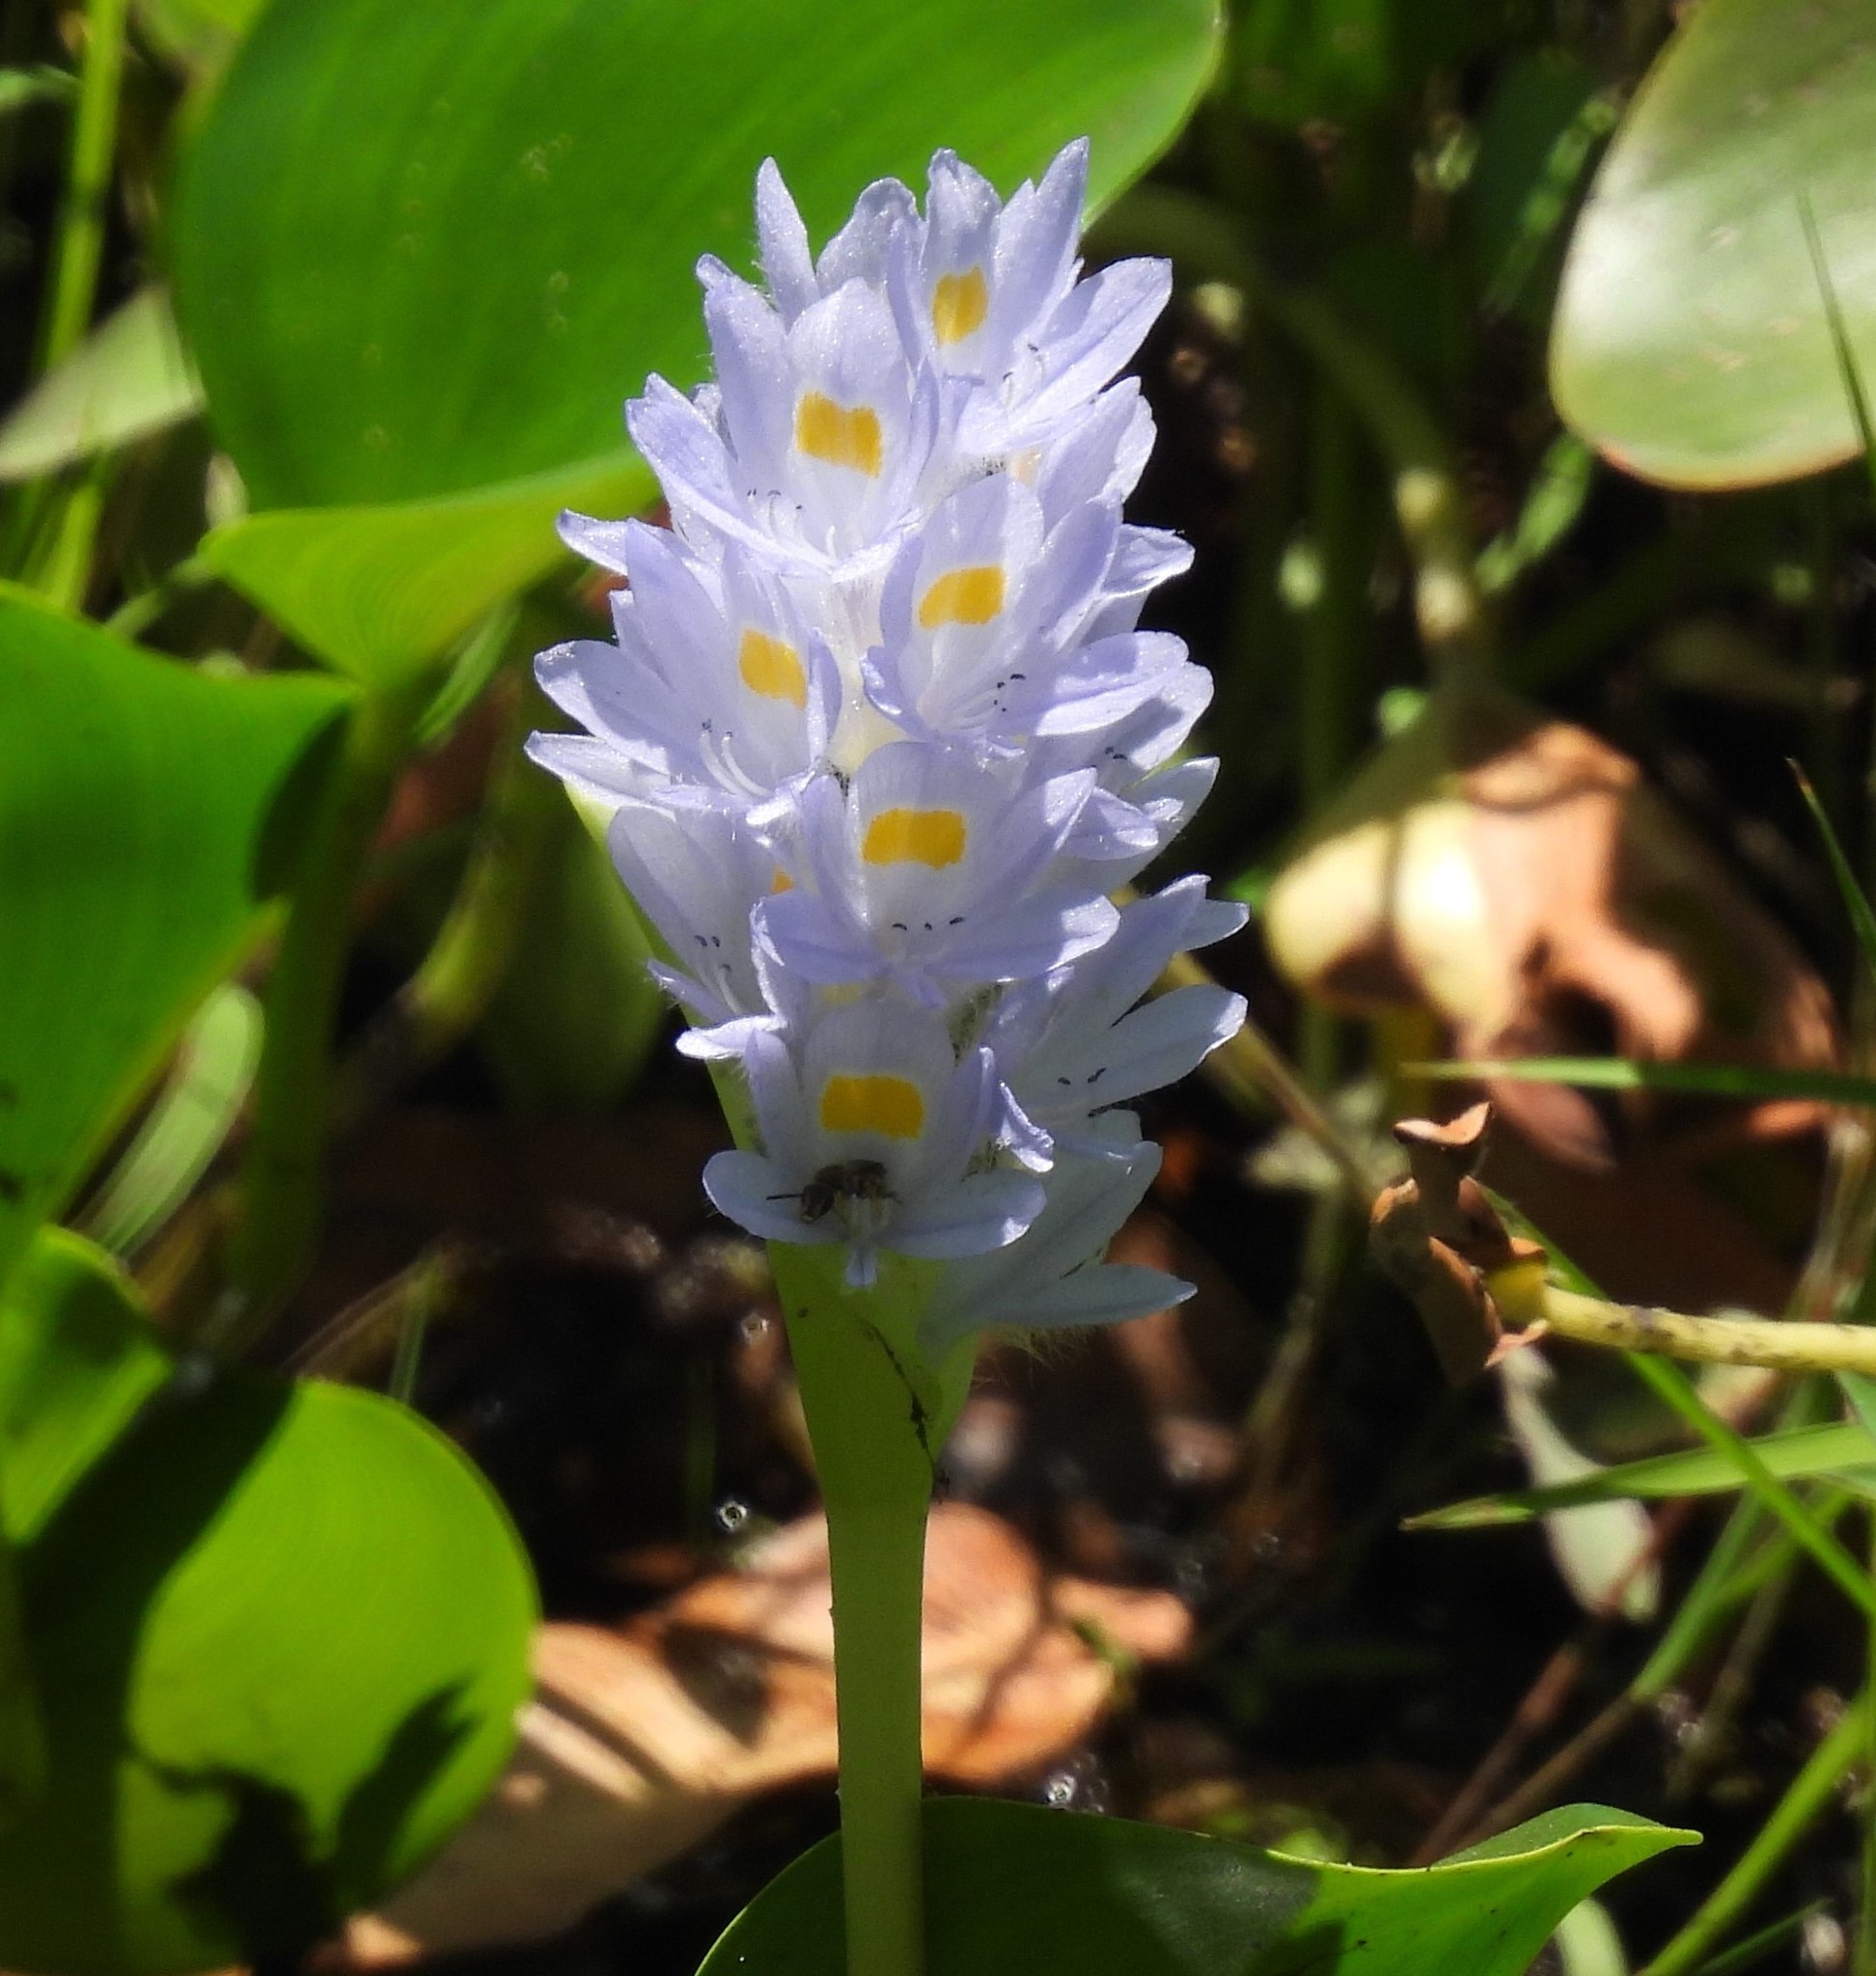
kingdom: Plantae
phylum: Tracheophyta
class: Liliopsida
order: Commelinales
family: Pontederiaceae
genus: Pontederia
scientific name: Pontederia rotundifolia
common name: Tropical pickerel-weed
